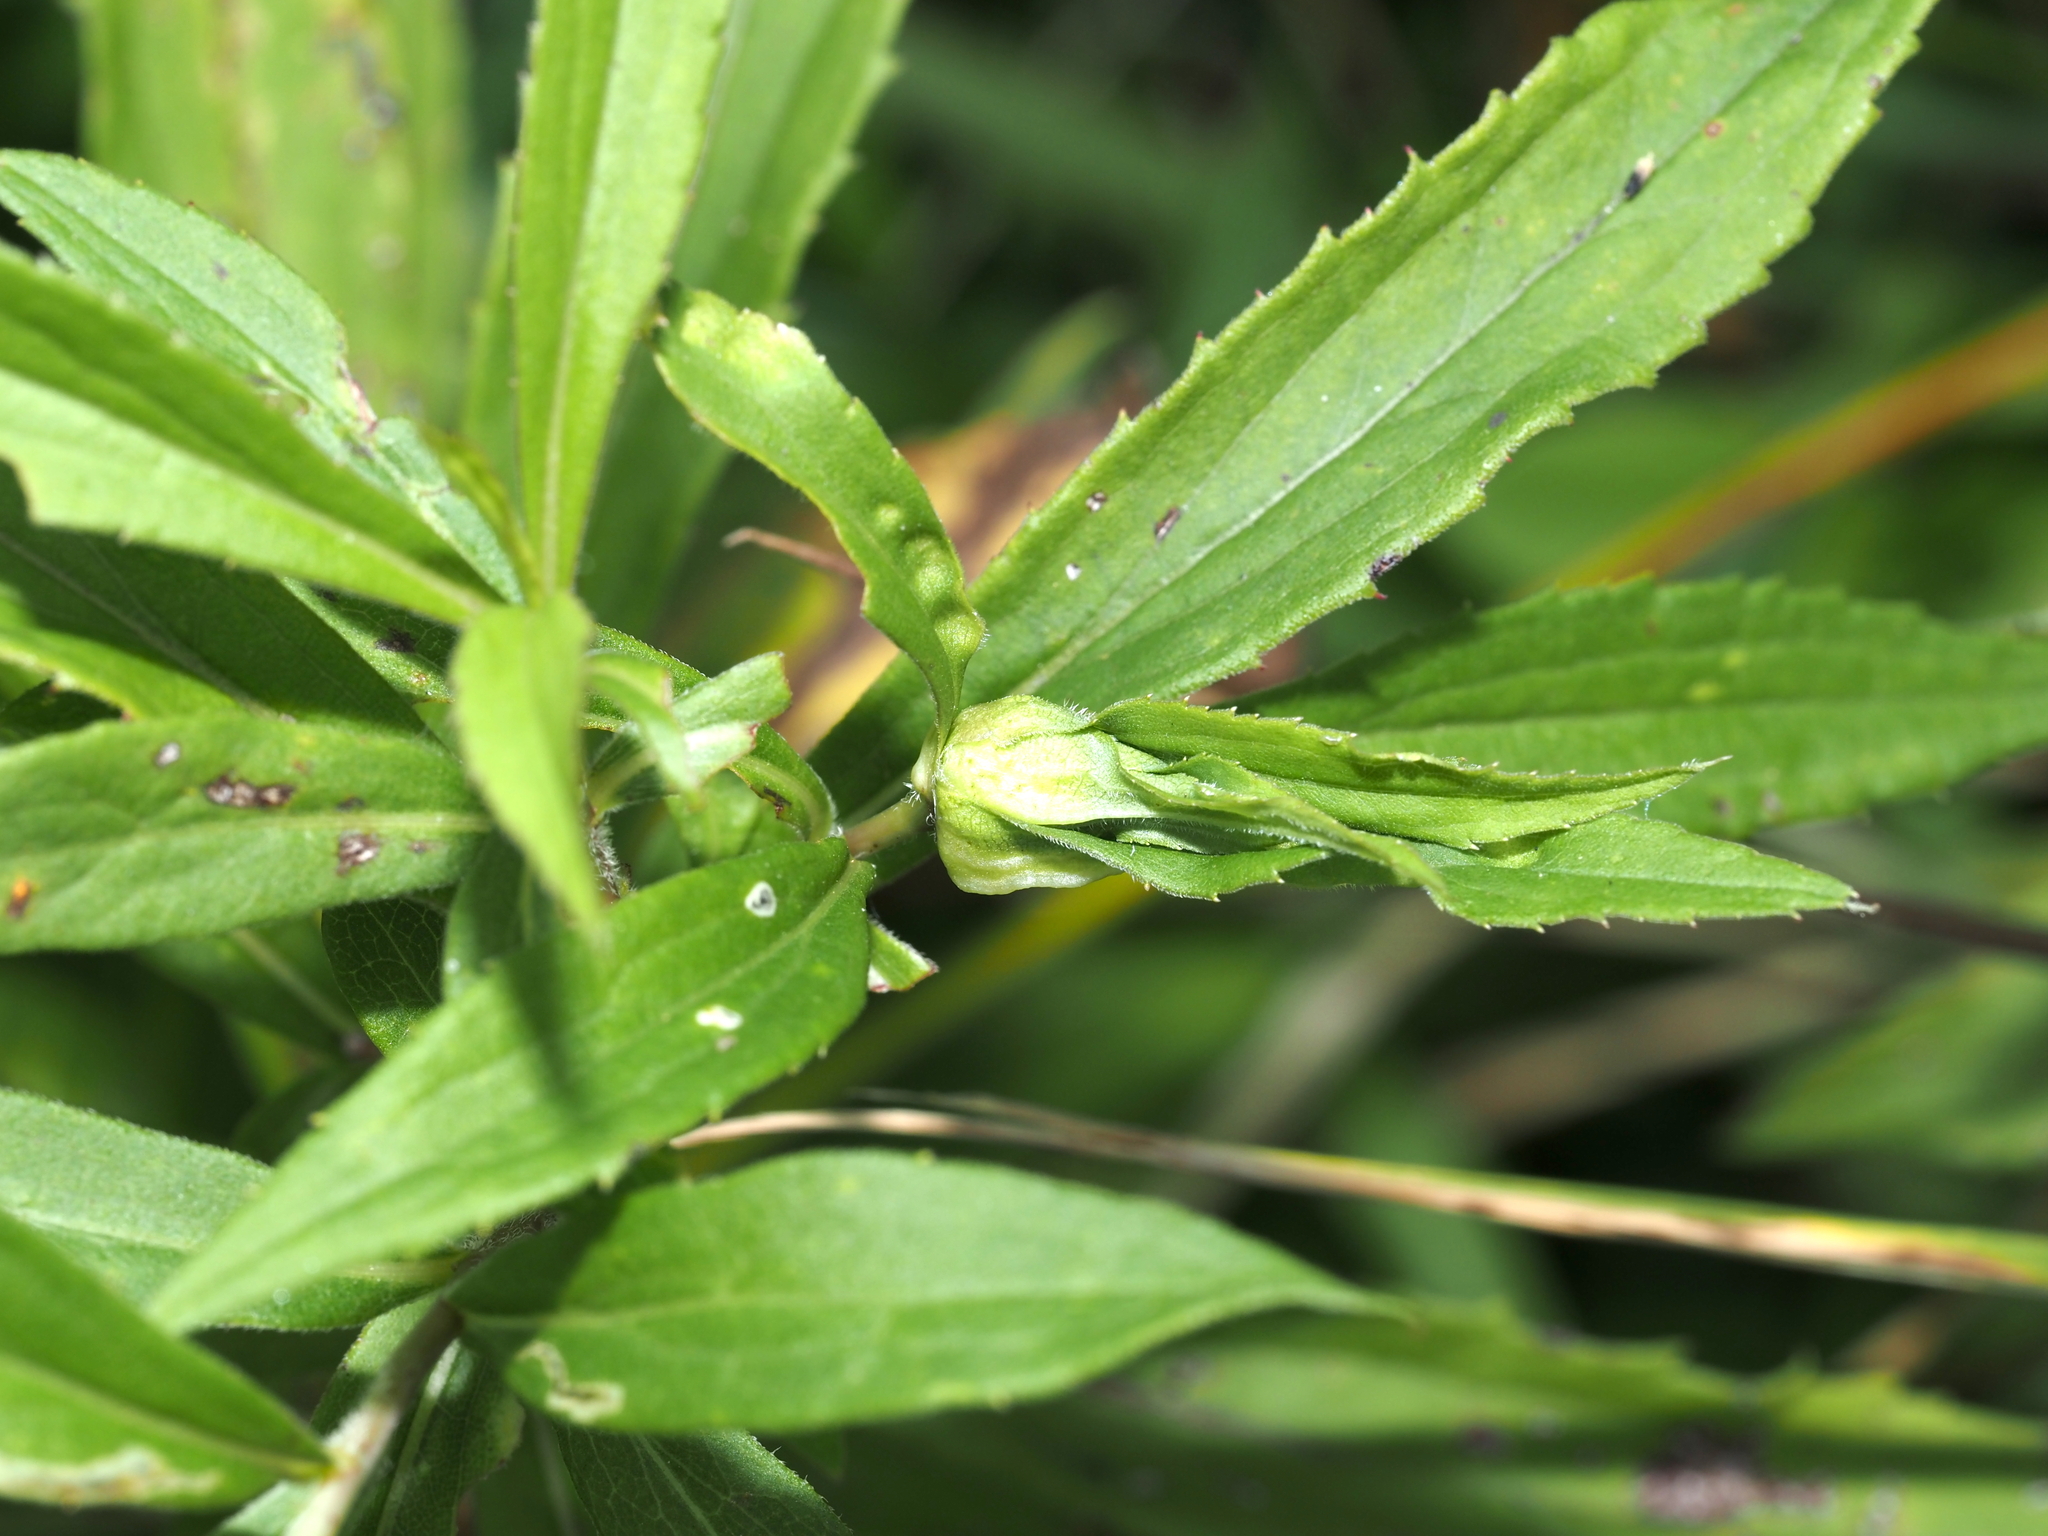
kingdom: Animalia
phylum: Arthropoda
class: Insecta
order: Diptera
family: Cecidomyiidae
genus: Dasineura
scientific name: Dasineura folliculi
